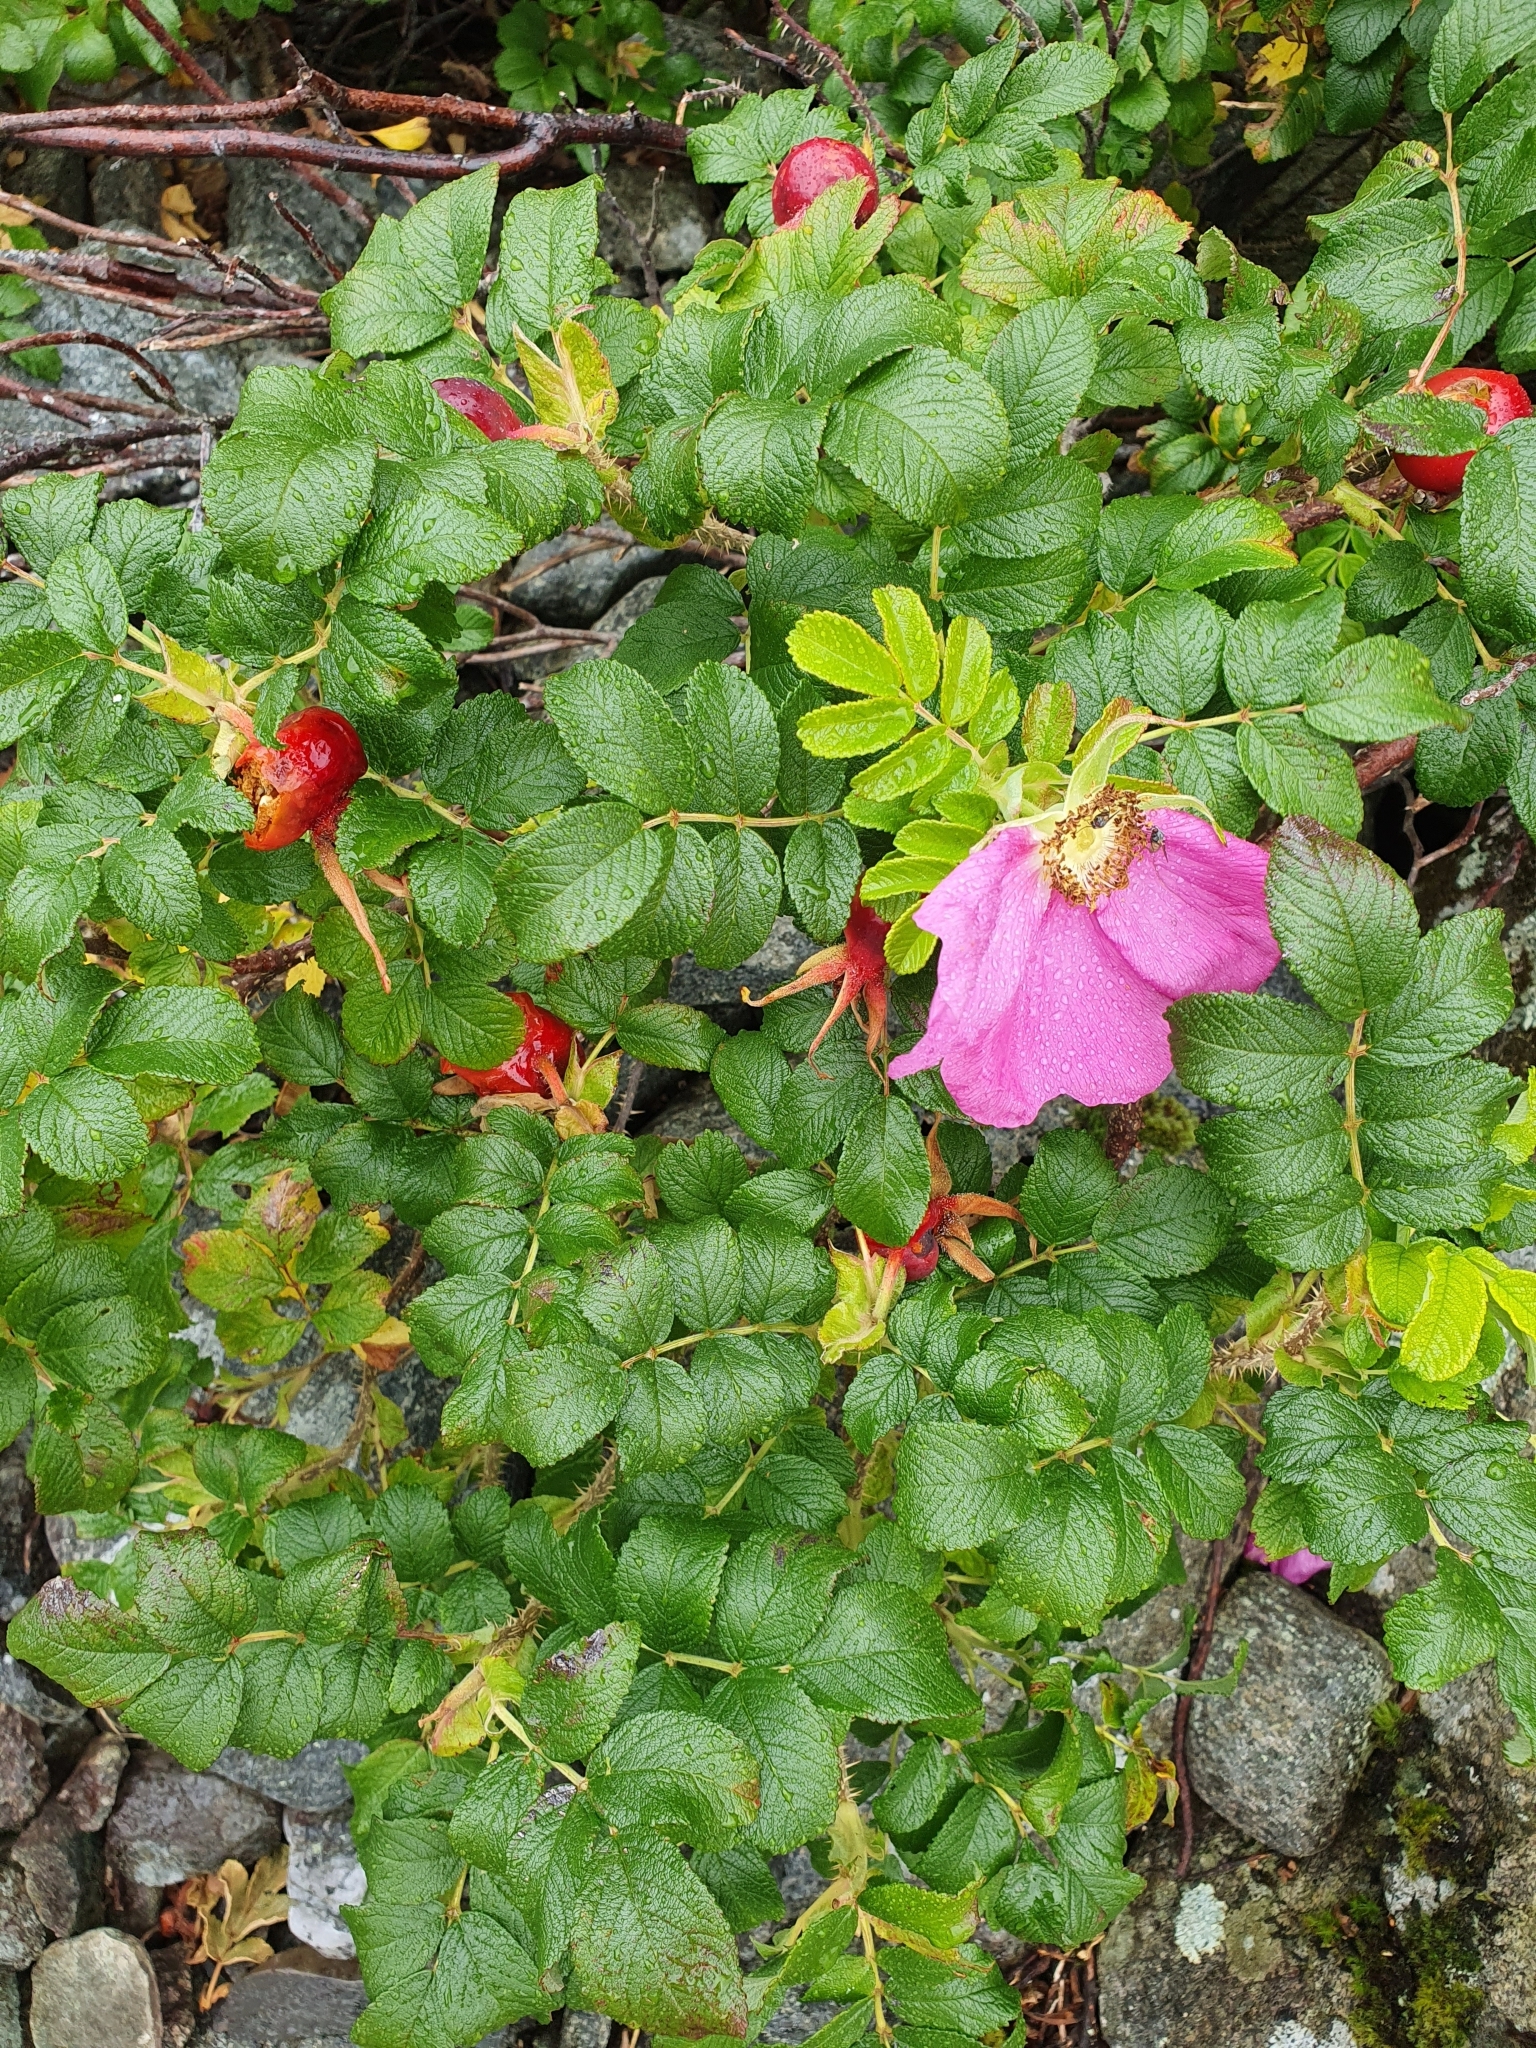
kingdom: Plantae
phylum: Tracheophyta
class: Magnoliopsida
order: Rosales
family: Rosaceae
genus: Rosa
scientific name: Rosa rugosa
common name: Japanese rose
